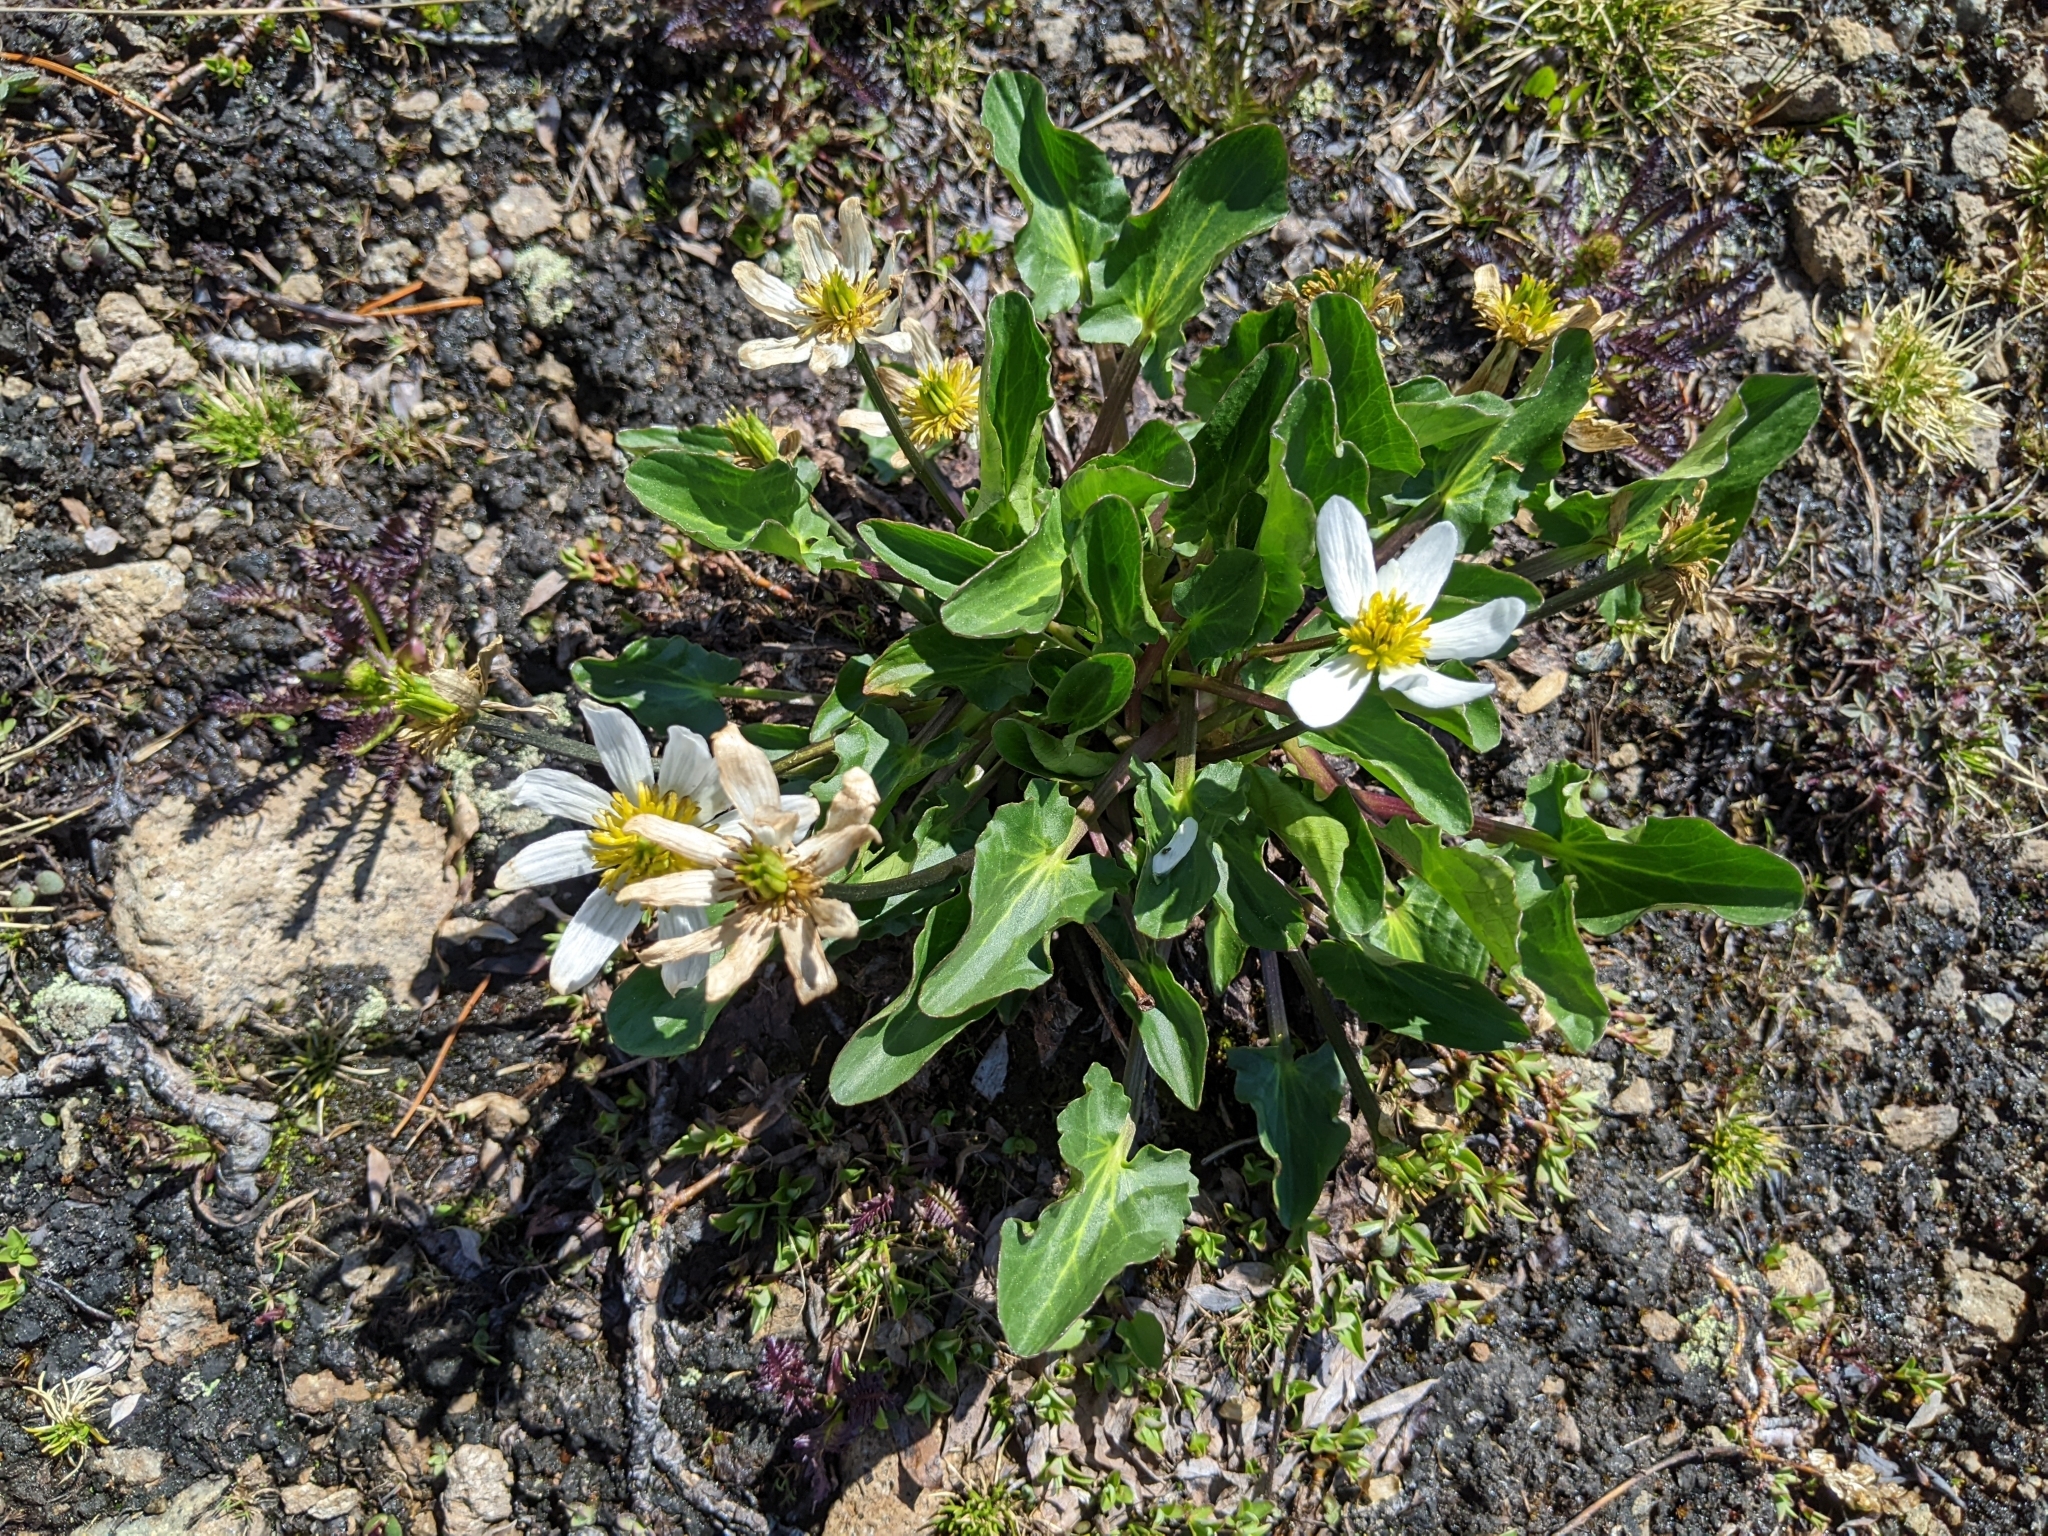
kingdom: Plantae
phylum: Tracheophyta
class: Magnoliopsida
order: Ranunculales
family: Ranunculaceae
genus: Caltha
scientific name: Caltha leptosepala
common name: Elkslip
